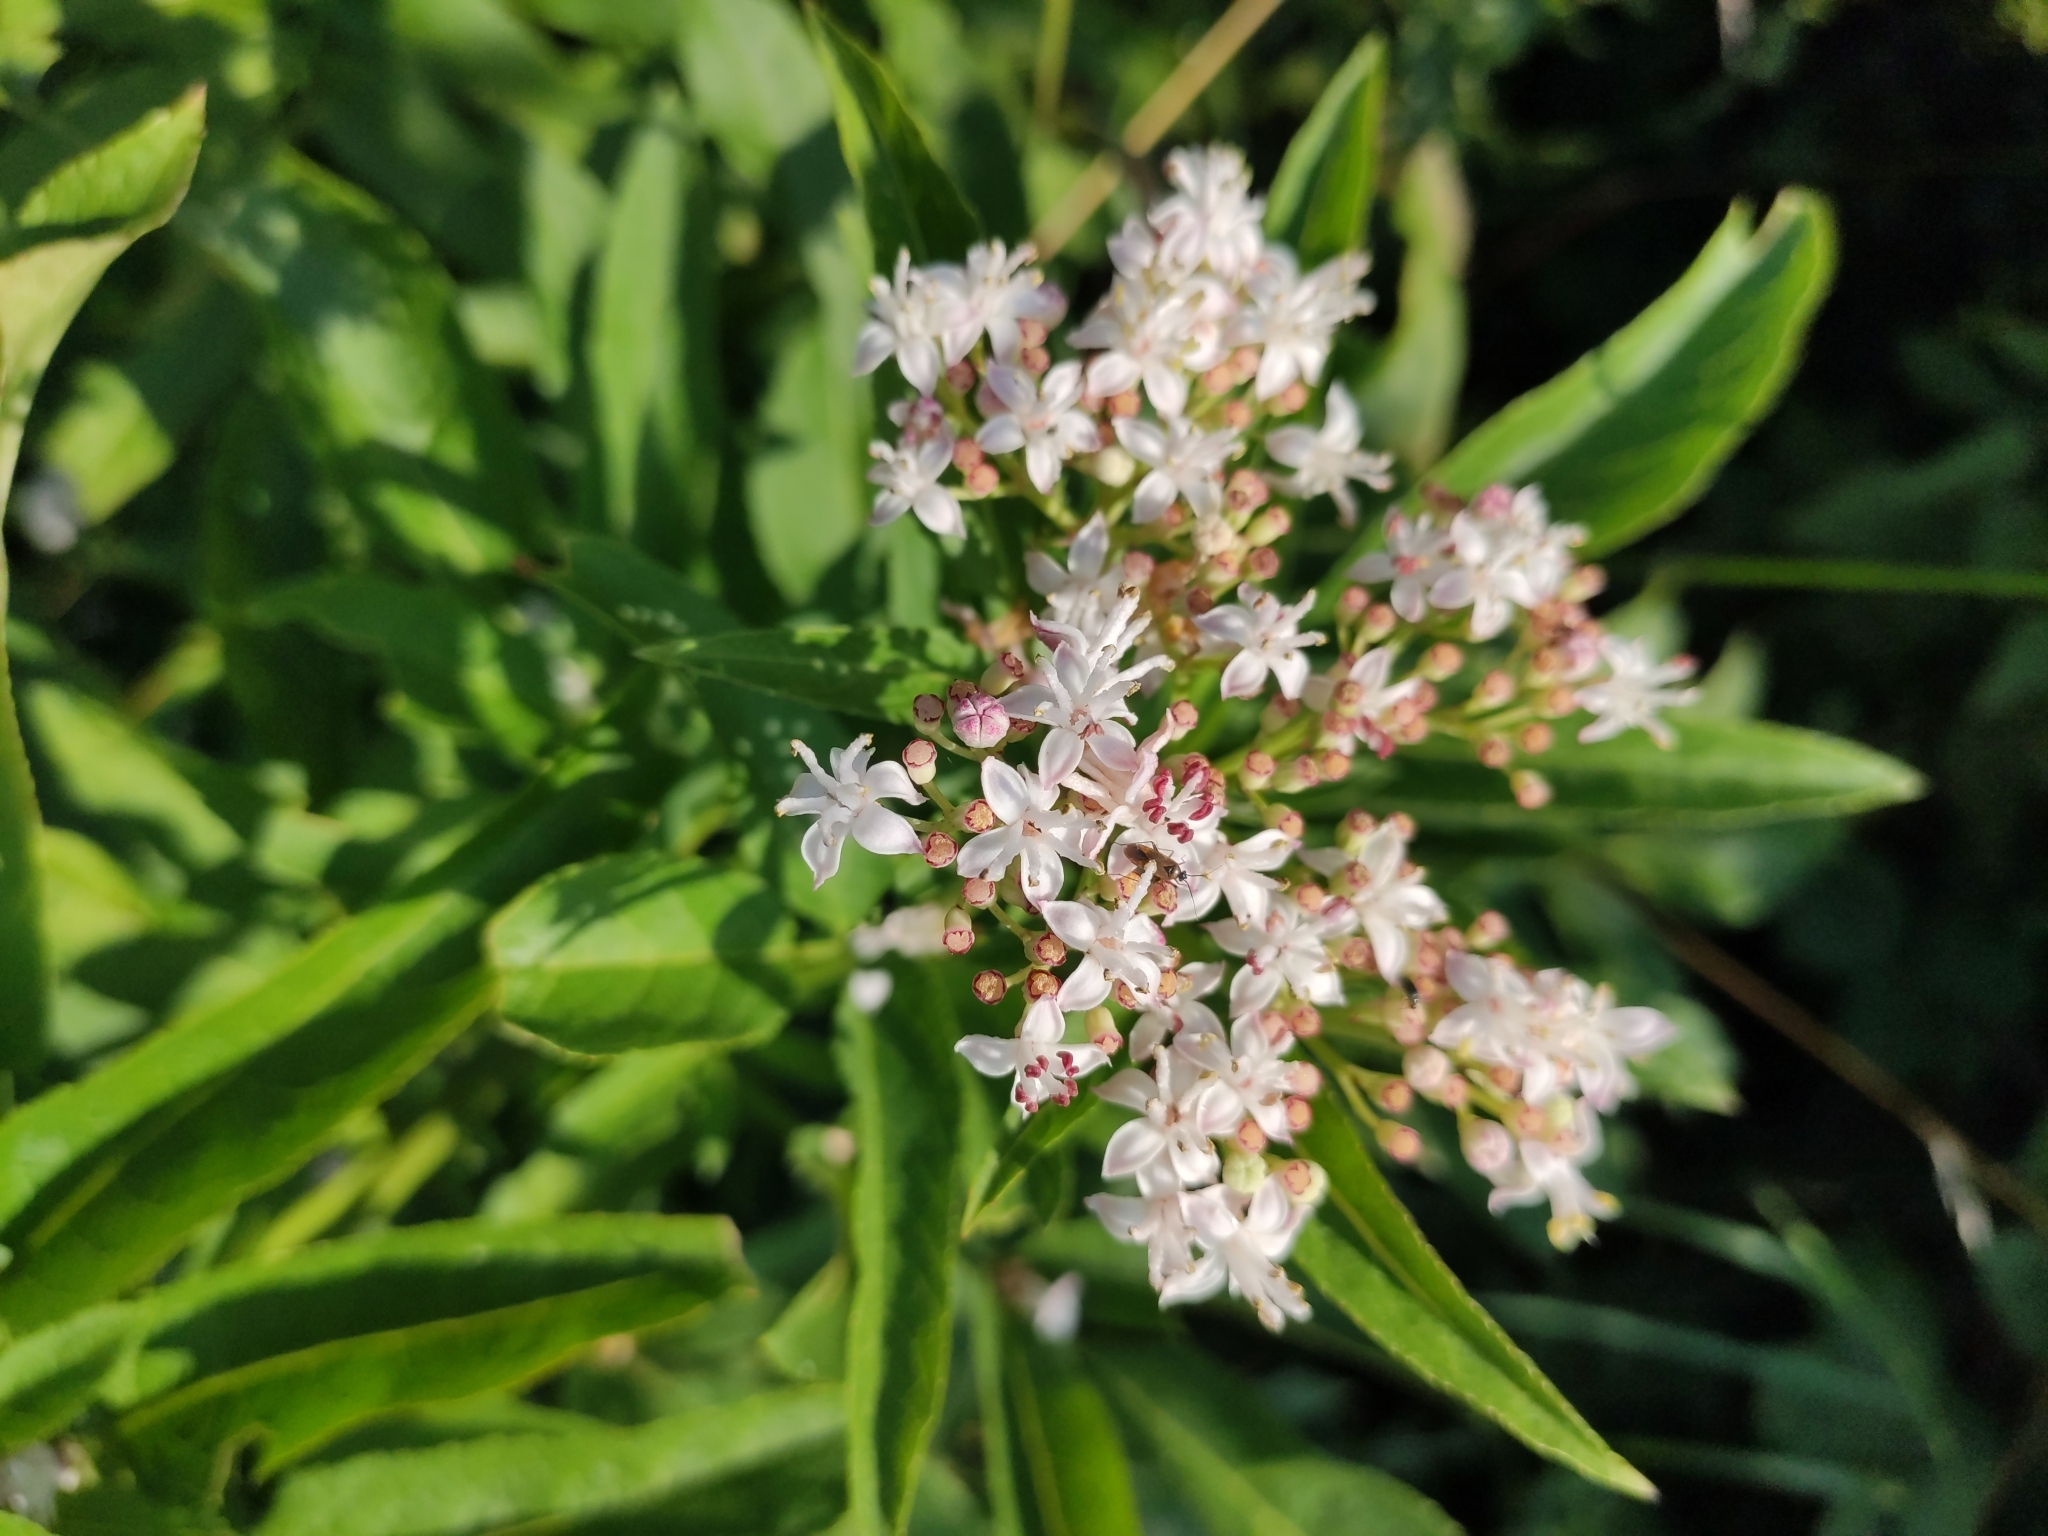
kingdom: Plantae
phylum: Tracheophyta
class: Magnoliopsida
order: Dipsacales
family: Viburnaceae
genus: Sambucus
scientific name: Sambucus ebulus
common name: Dwarf elder
